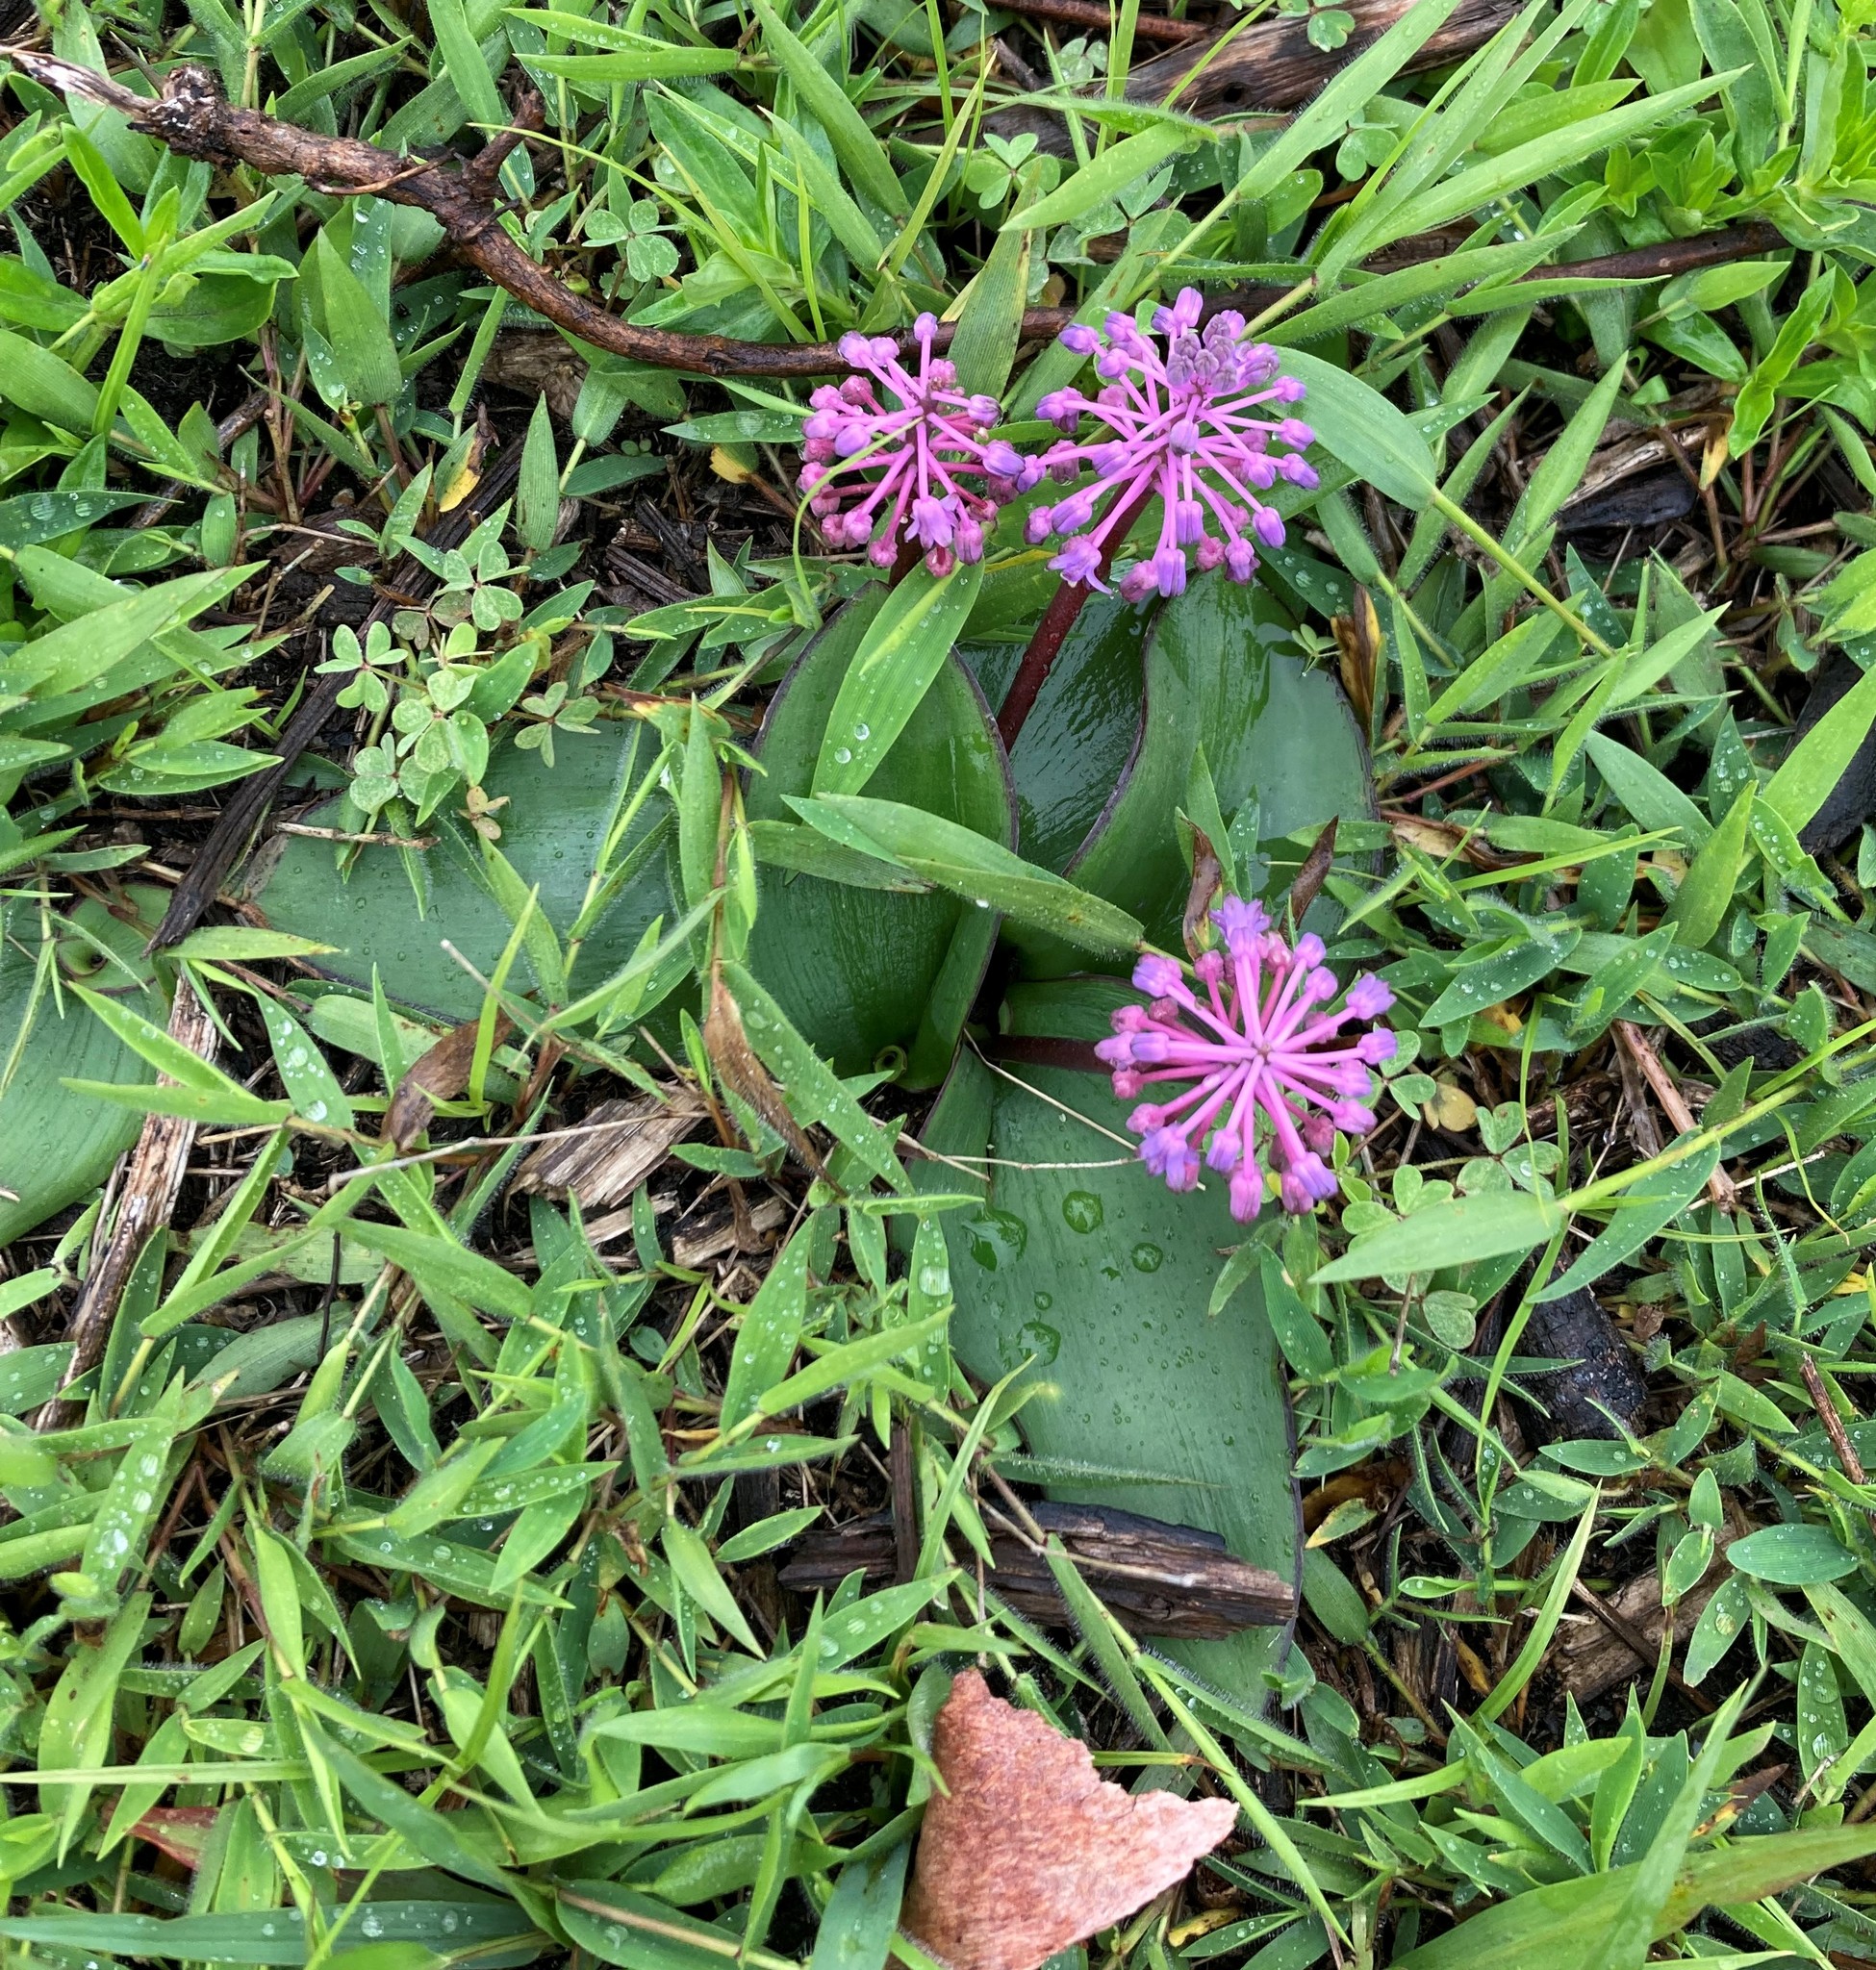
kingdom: Plantae
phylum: Tracheophyta
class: Liliopsida
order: Asparagales
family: Asparagaceae
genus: Ledebouria
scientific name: Ledebouria sandersonii
